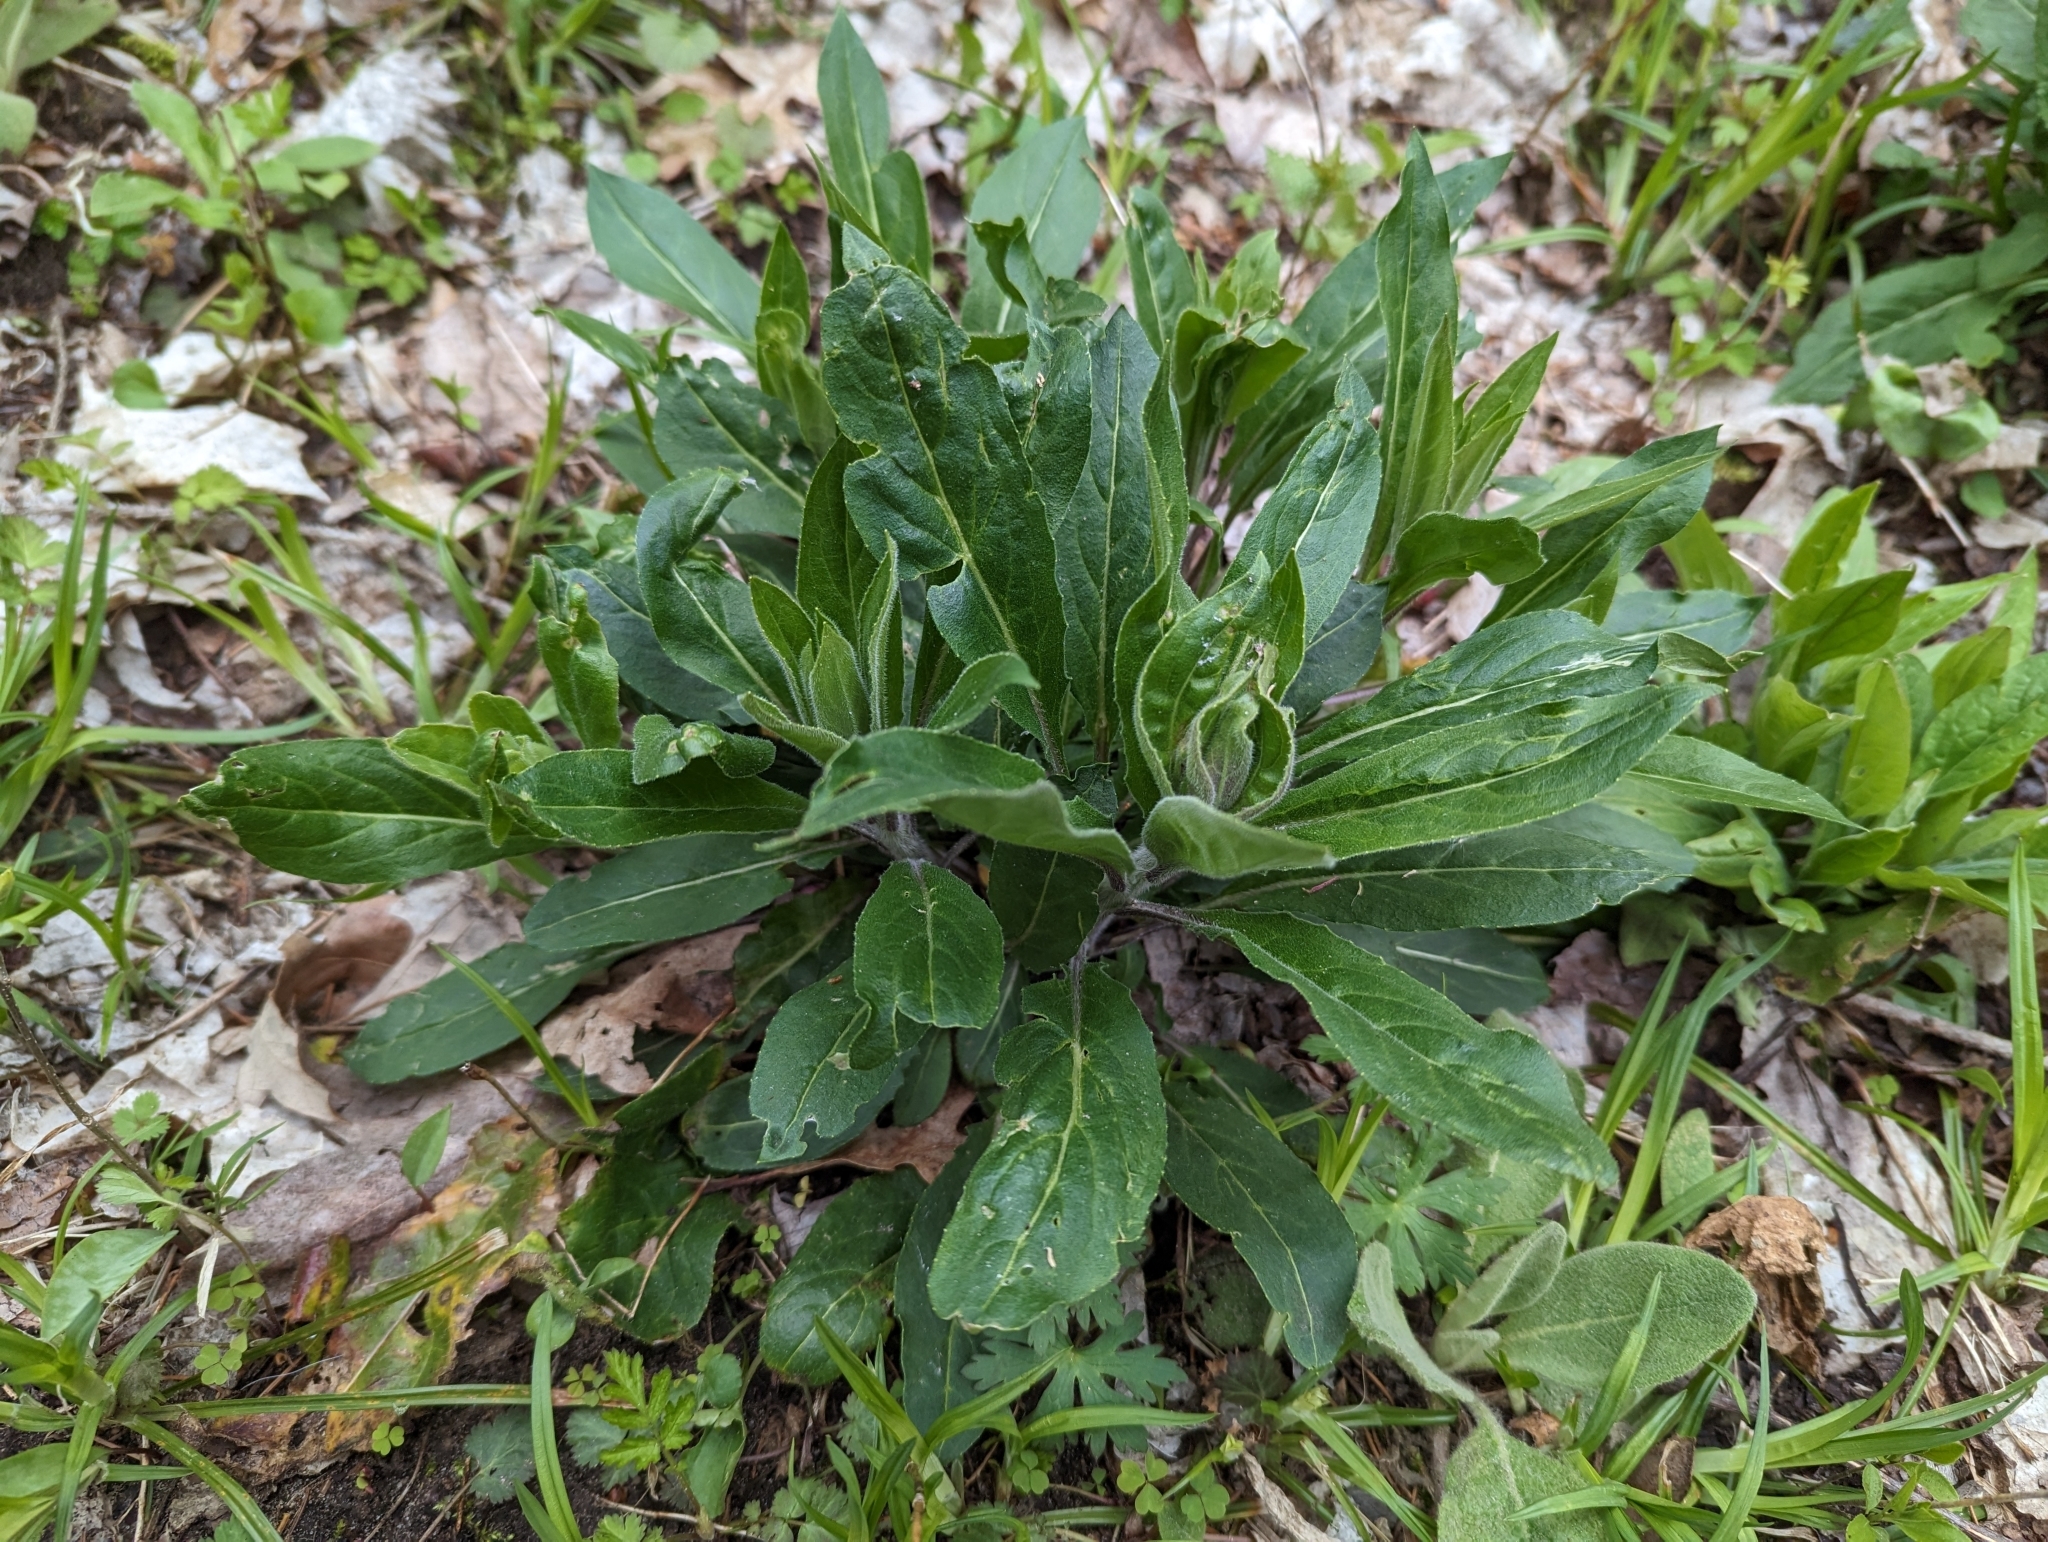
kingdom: Plantae
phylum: Tracheophyta
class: Magnoliopsida
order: Brassicales
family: Brassicaceae
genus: Hesperis
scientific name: Hesperis matronalis
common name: Dame's-violet
